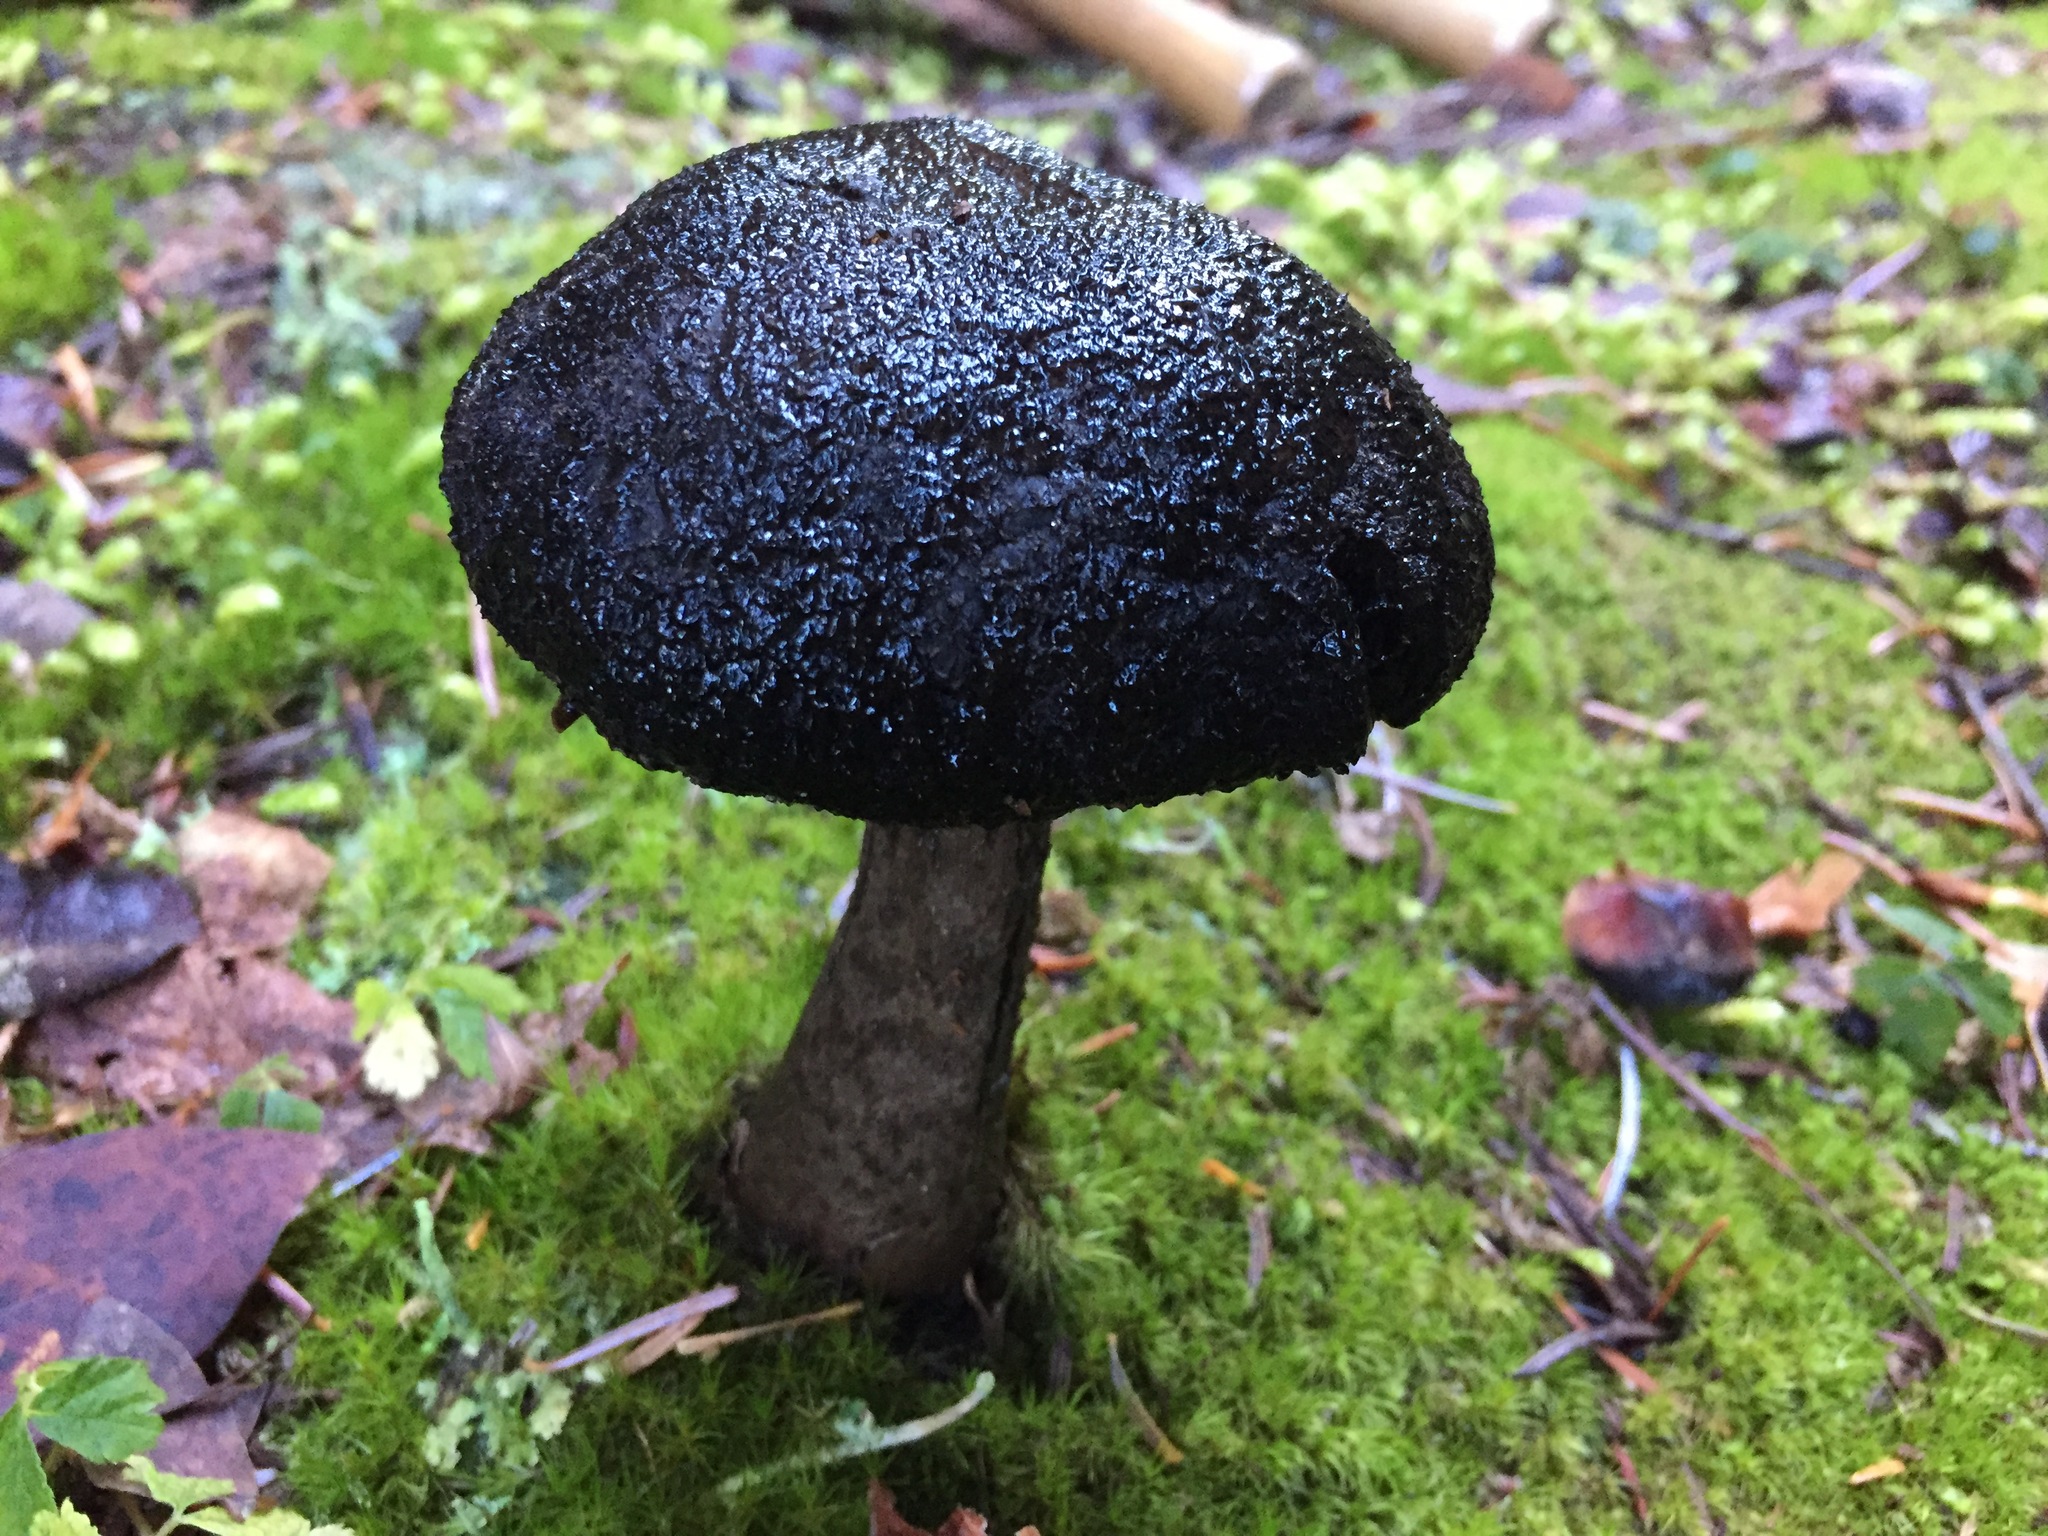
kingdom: Fungi
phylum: Basidiomycota
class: Agaricomycetes
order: Agaricales
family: Cortinariaceae
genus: Cortinarius
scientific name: Cortinarius violaceus
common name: Violet webcap
